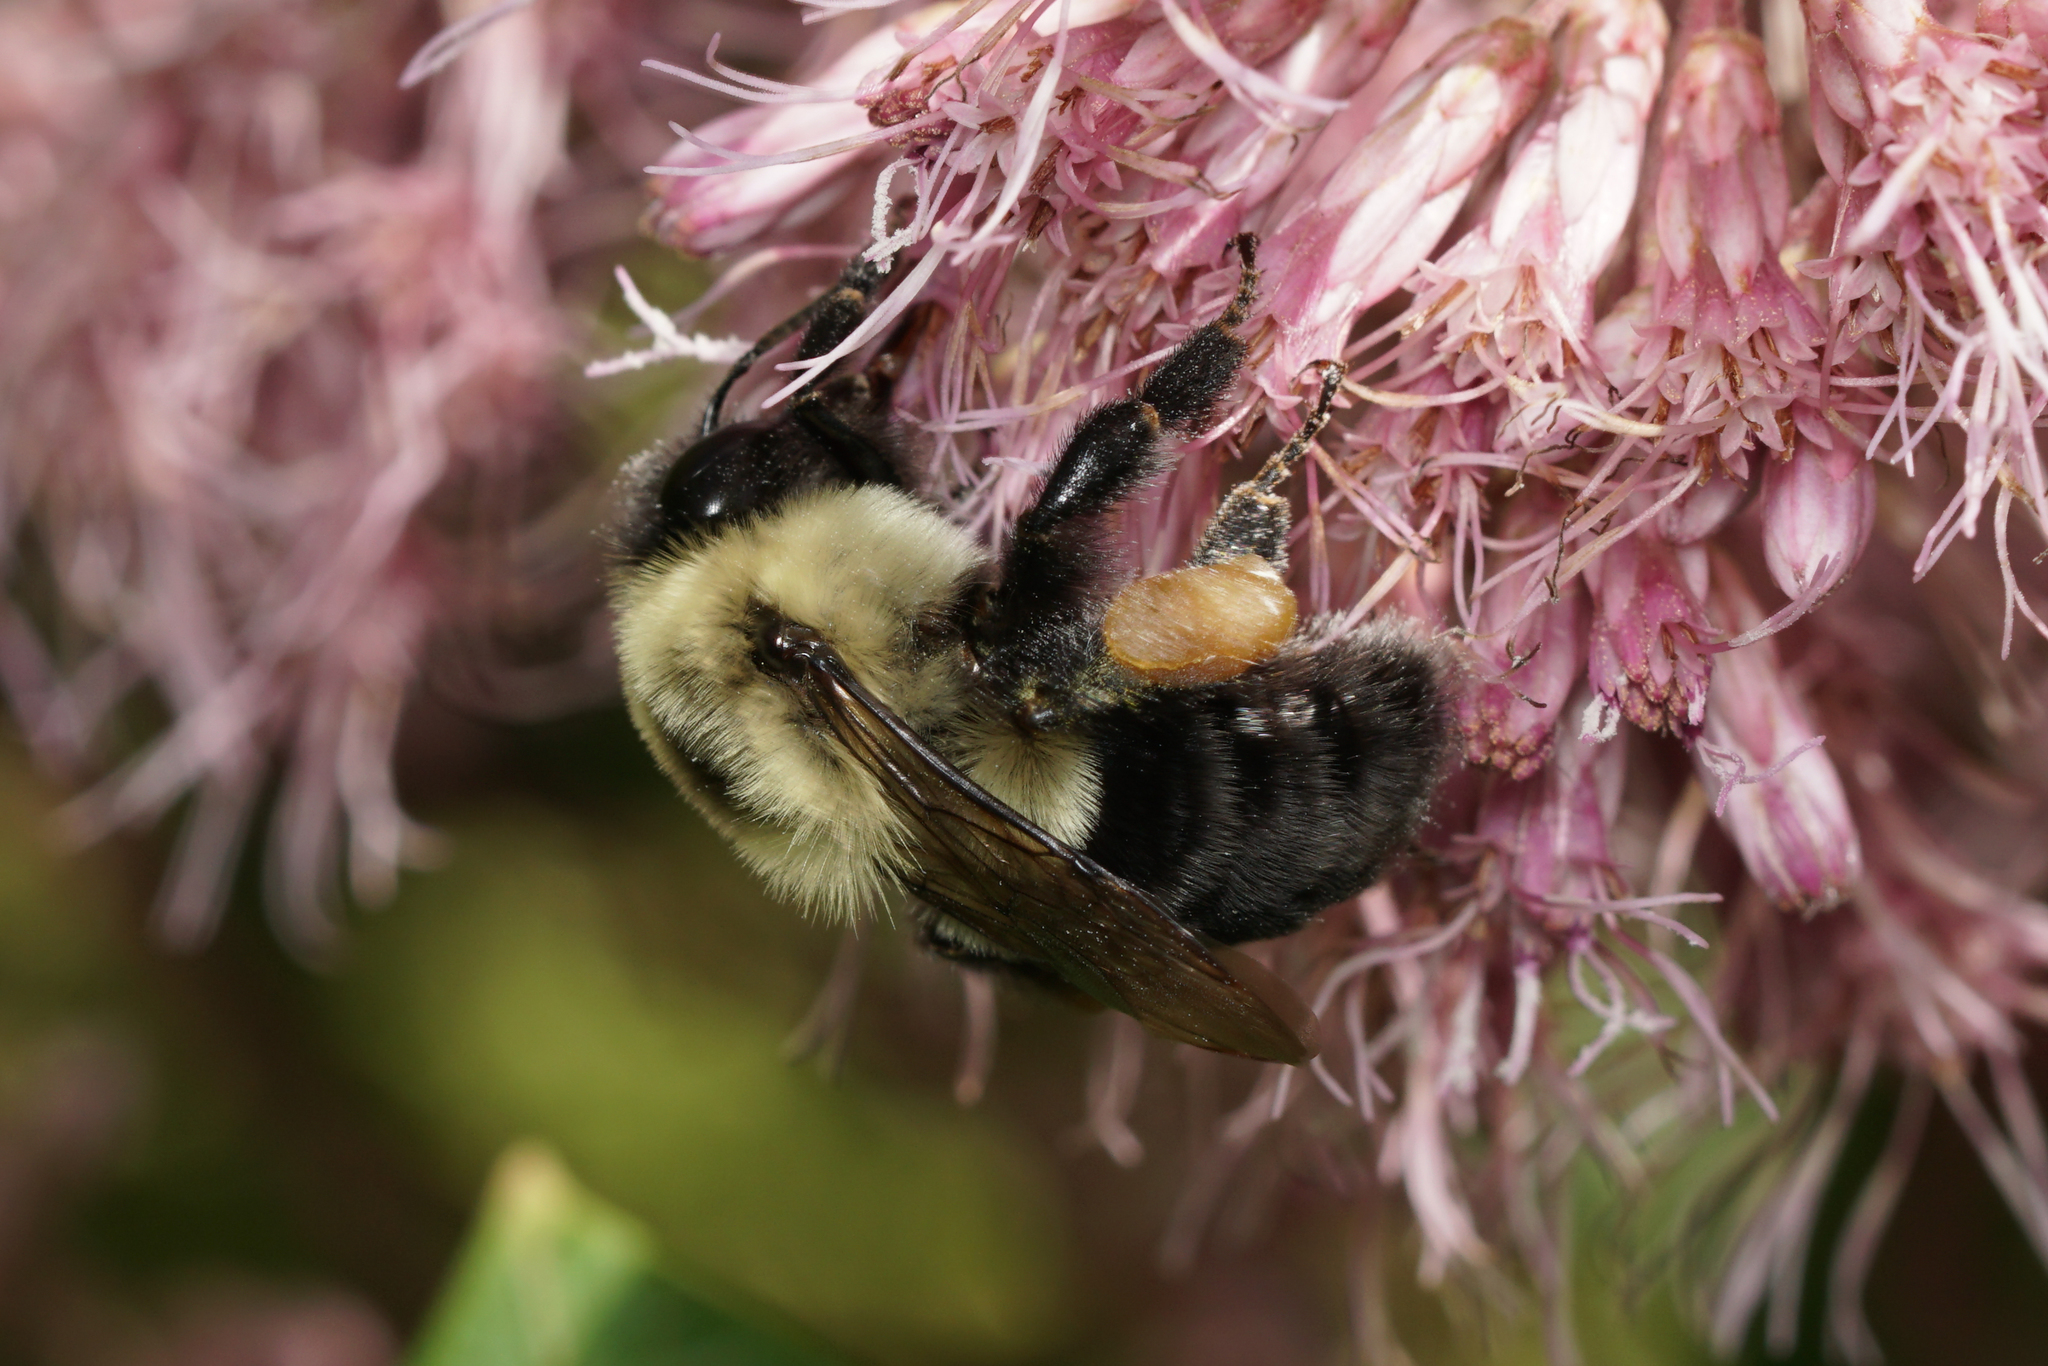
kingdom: Animalia
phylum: Arthropoda
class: Insecta
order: Hymenoptera
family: Apidae
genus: Bombus
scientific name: Bombus impatiens
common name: Common eastern bumble bee
